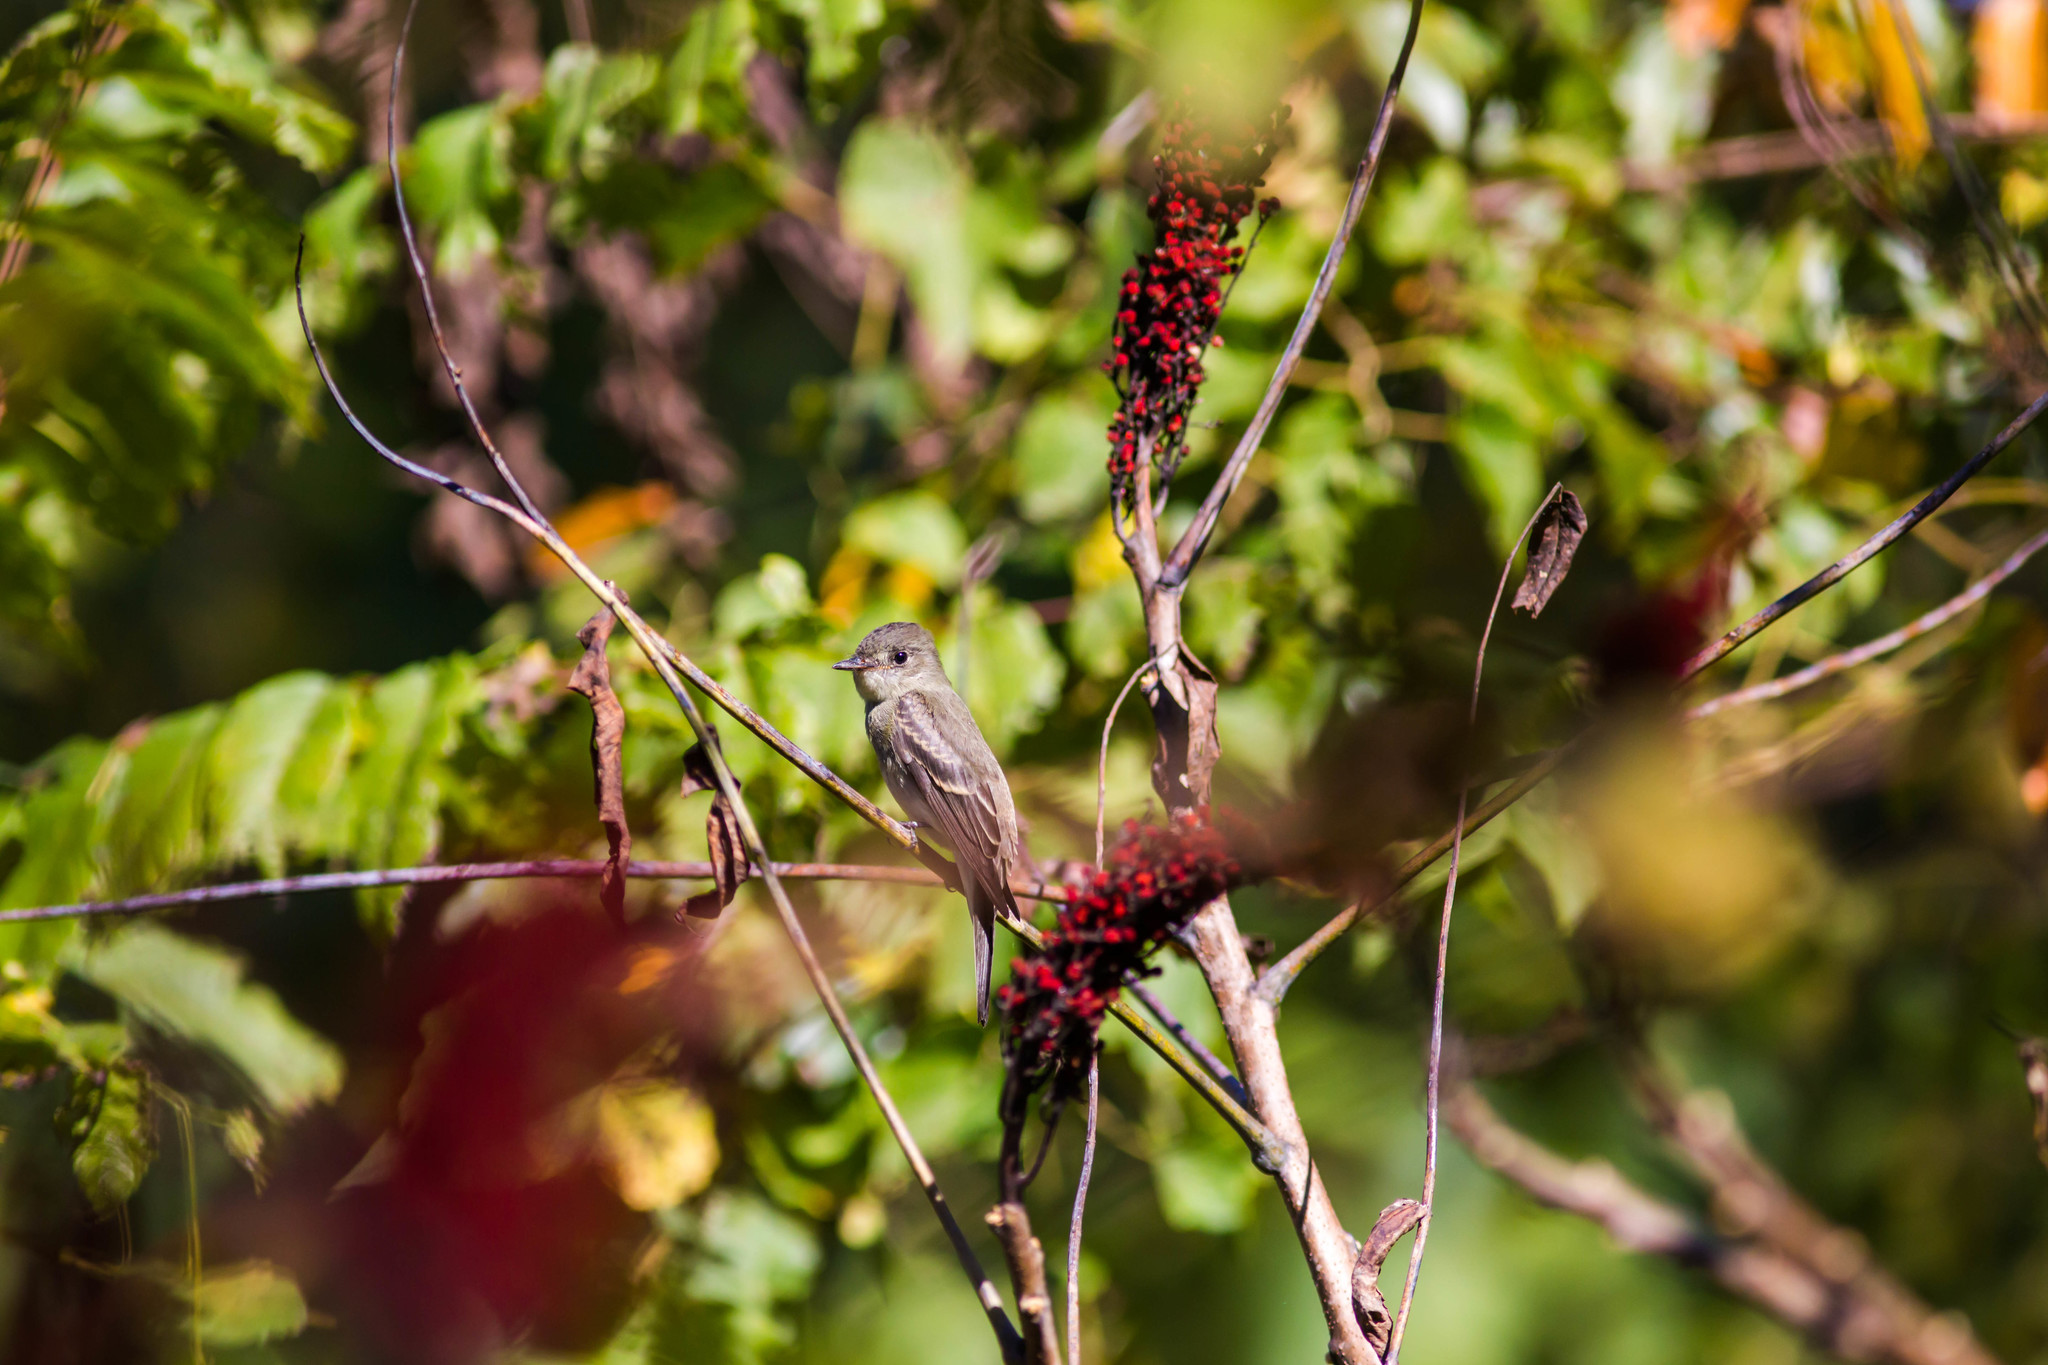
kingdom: Animalia
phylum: Chordata
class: Aves
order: Passeriformes
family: Tyrannidae
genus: Contopus
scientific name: Contopus virens
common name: Eastern wood-pewee
